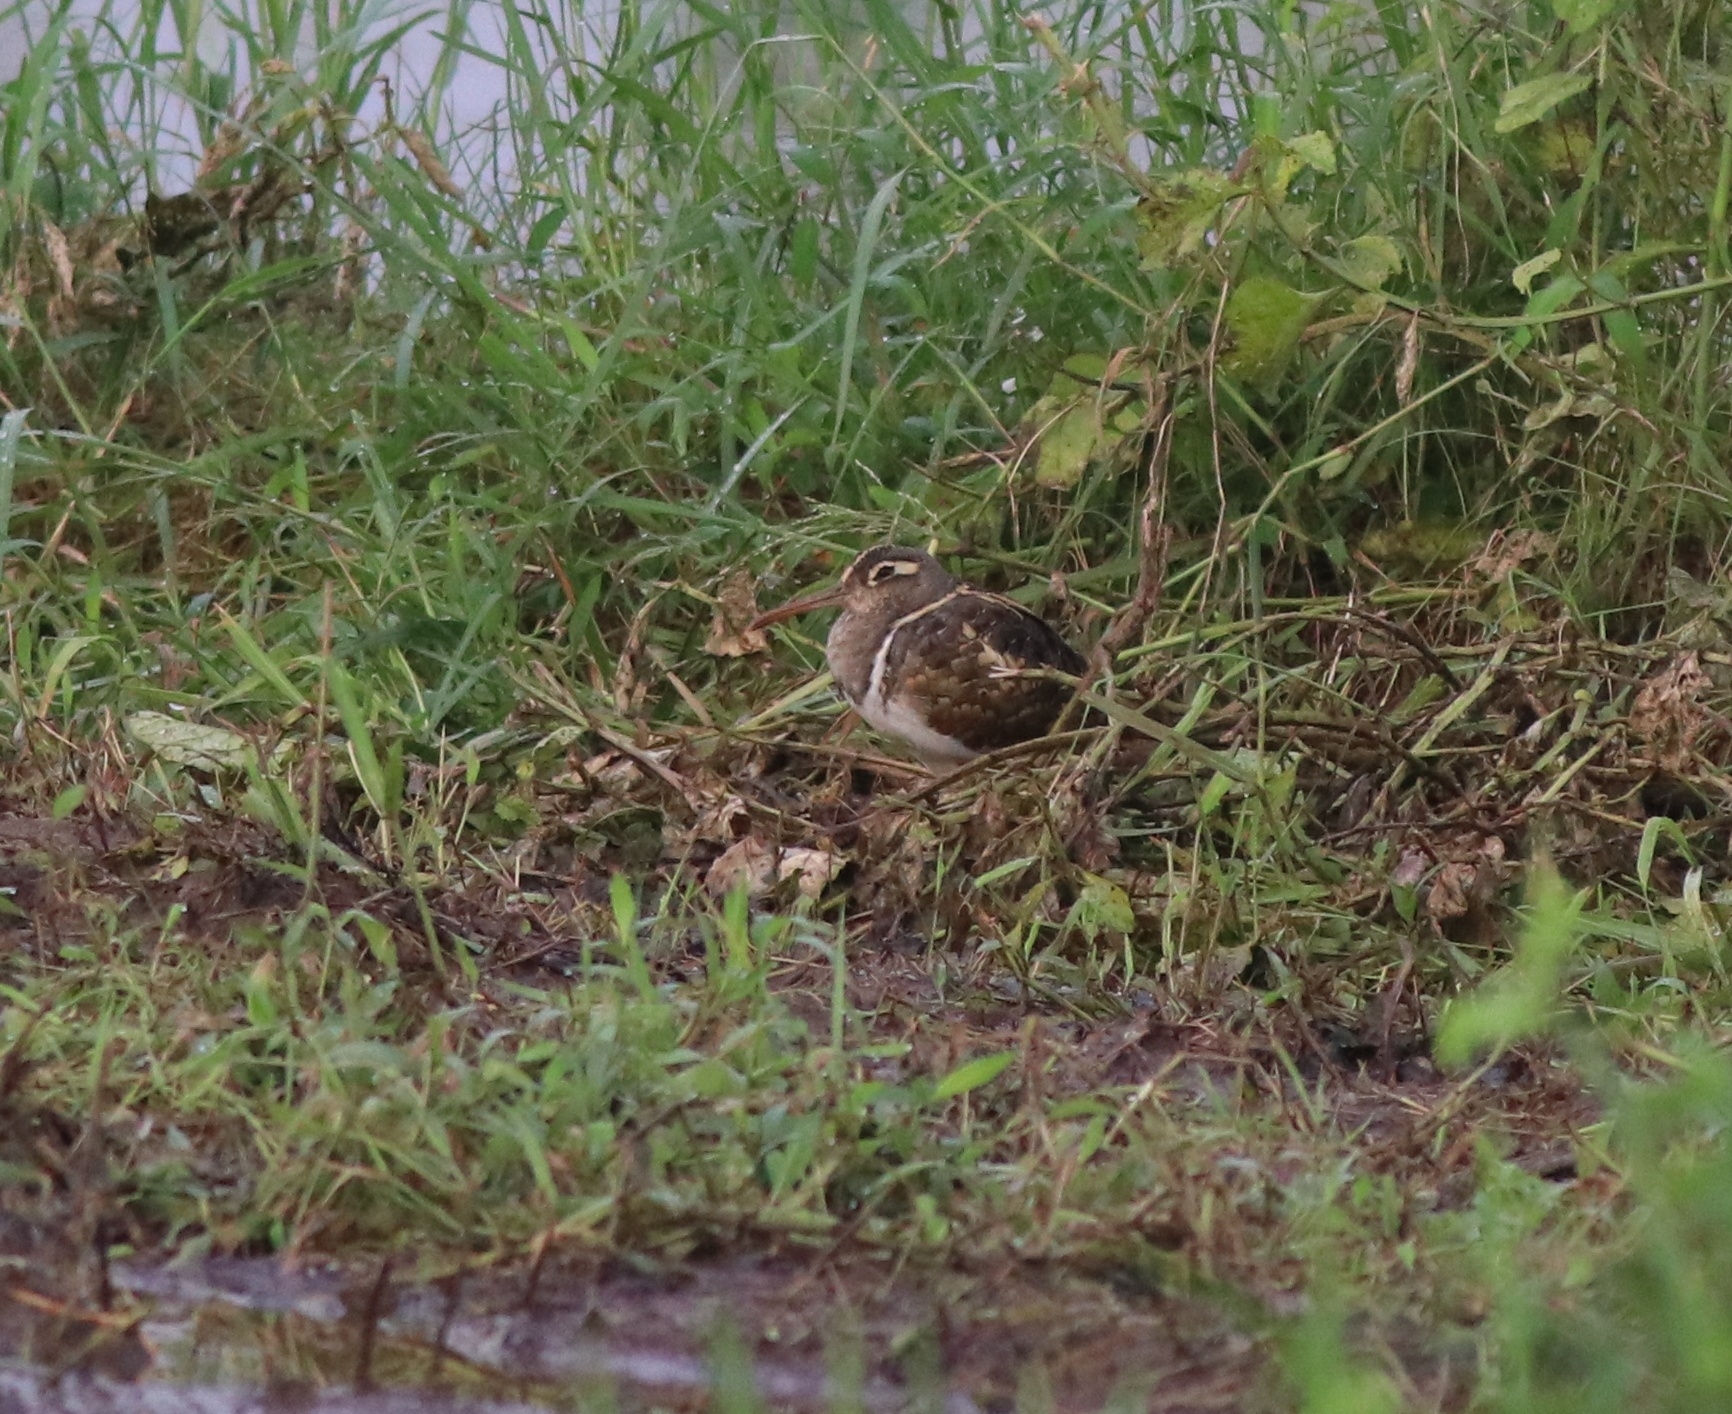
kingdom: Animalia
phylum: Chordata
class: Aves
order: Charadriiformes
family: Rostratulidae
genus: Rostratula
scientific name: Rostratula benghalensis
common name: Greater painted-snipe
